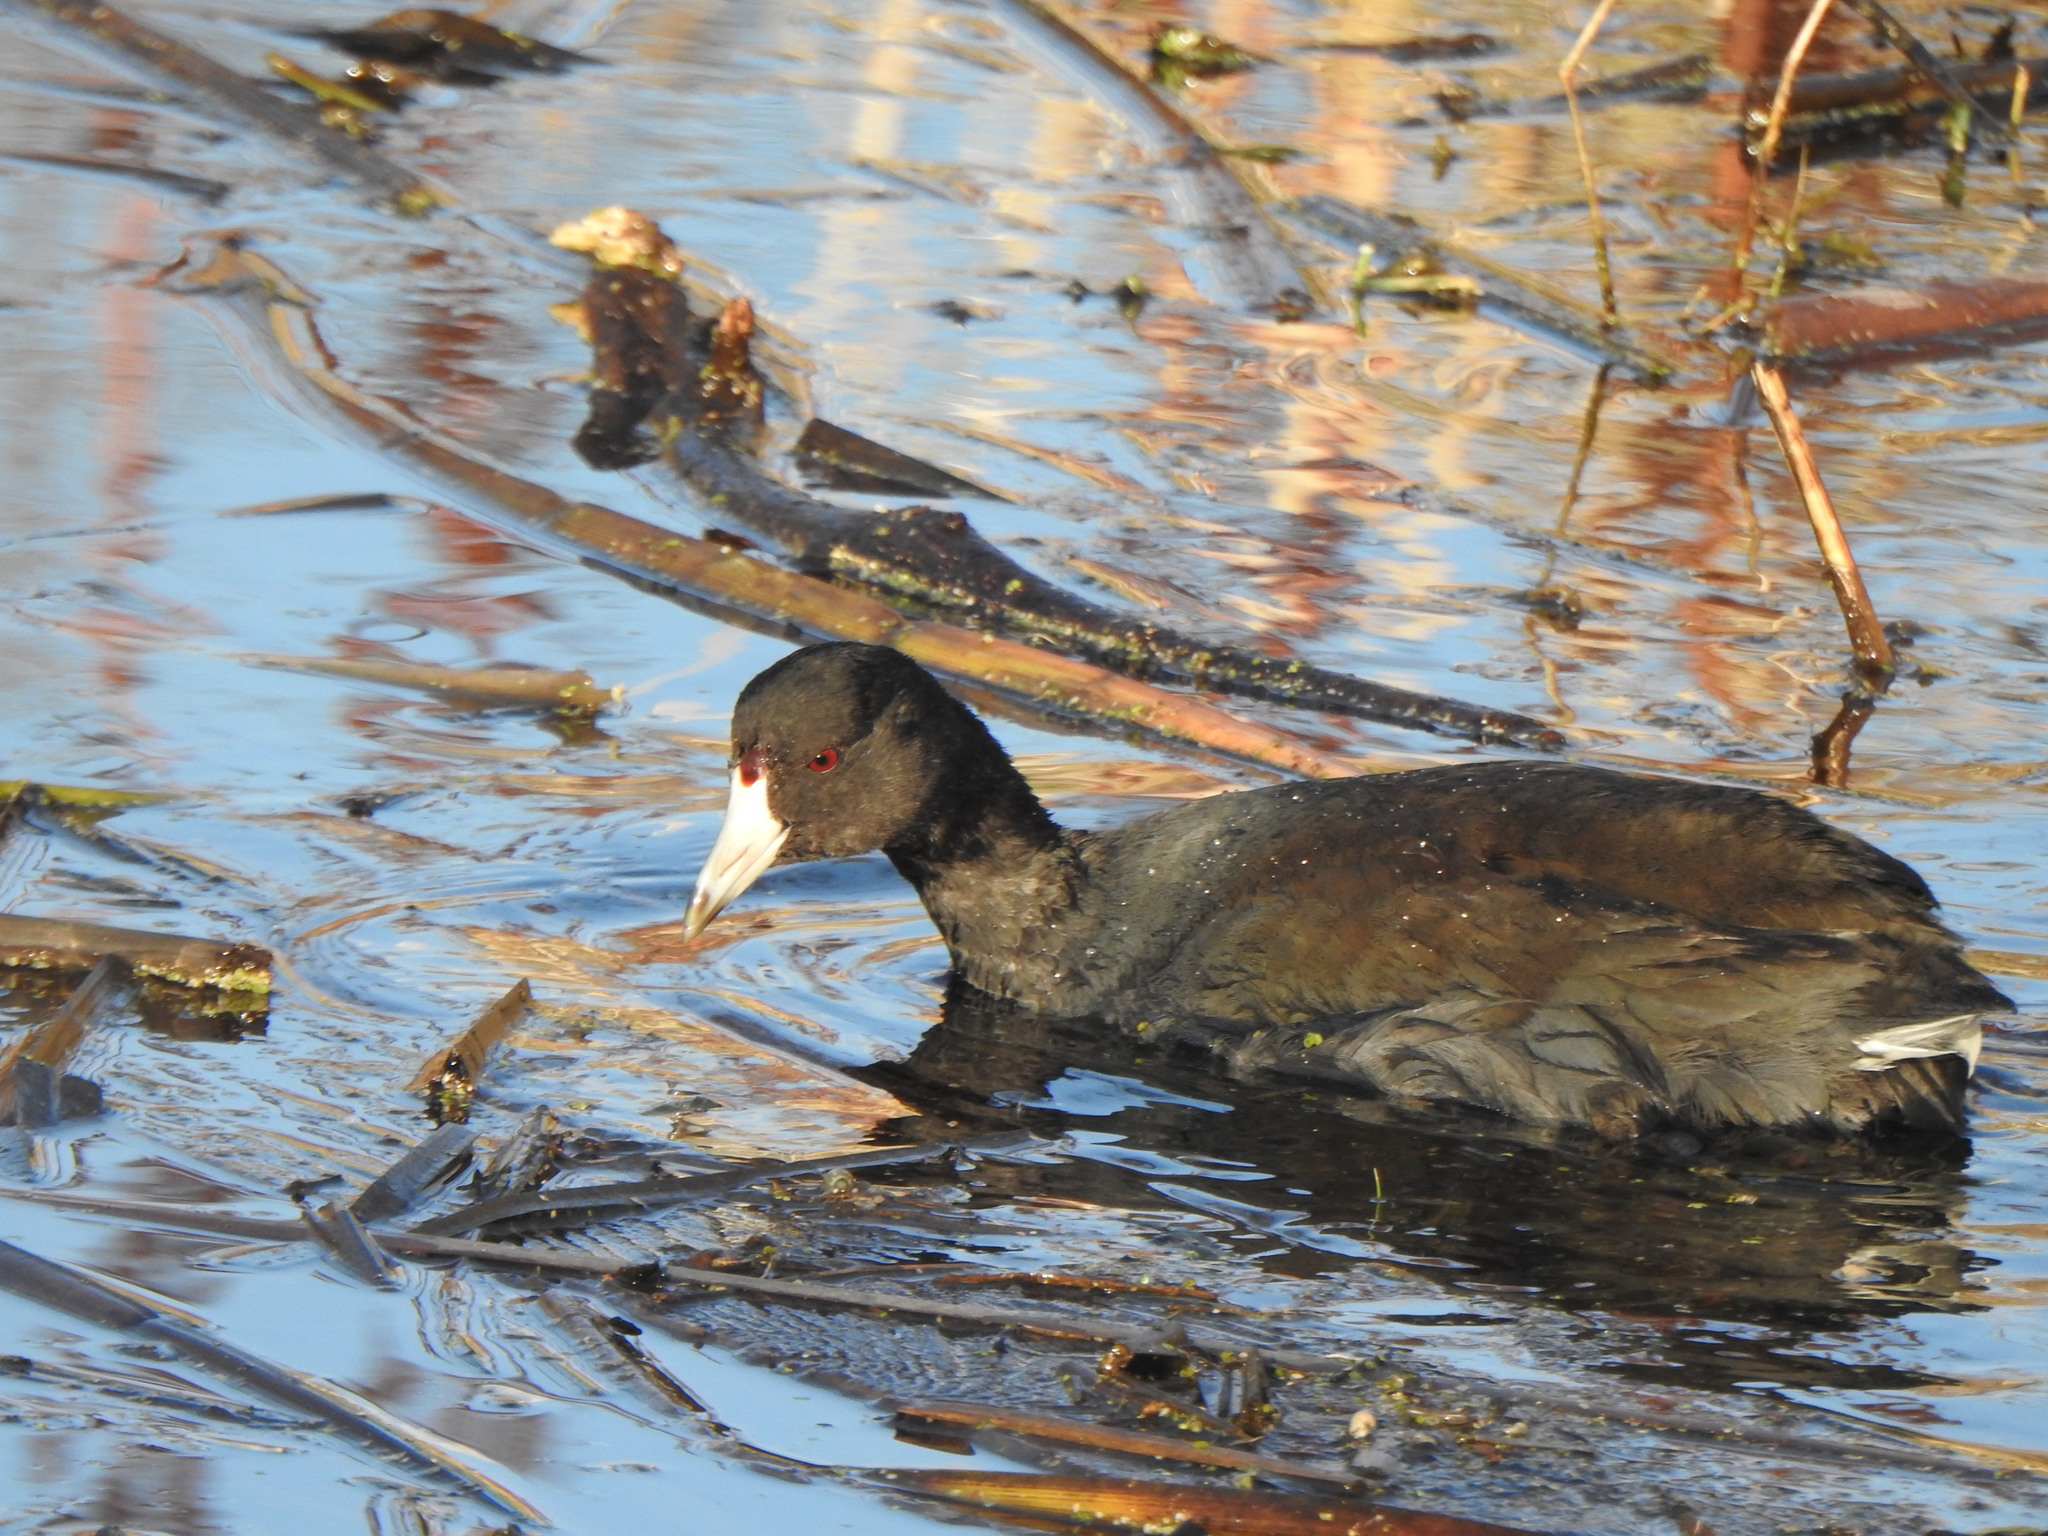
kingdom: Animalia
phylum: Chordata
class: Aves
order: Gruiformes
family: Rallidae
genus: Fulica
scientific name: Fulica americana
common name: American coot
